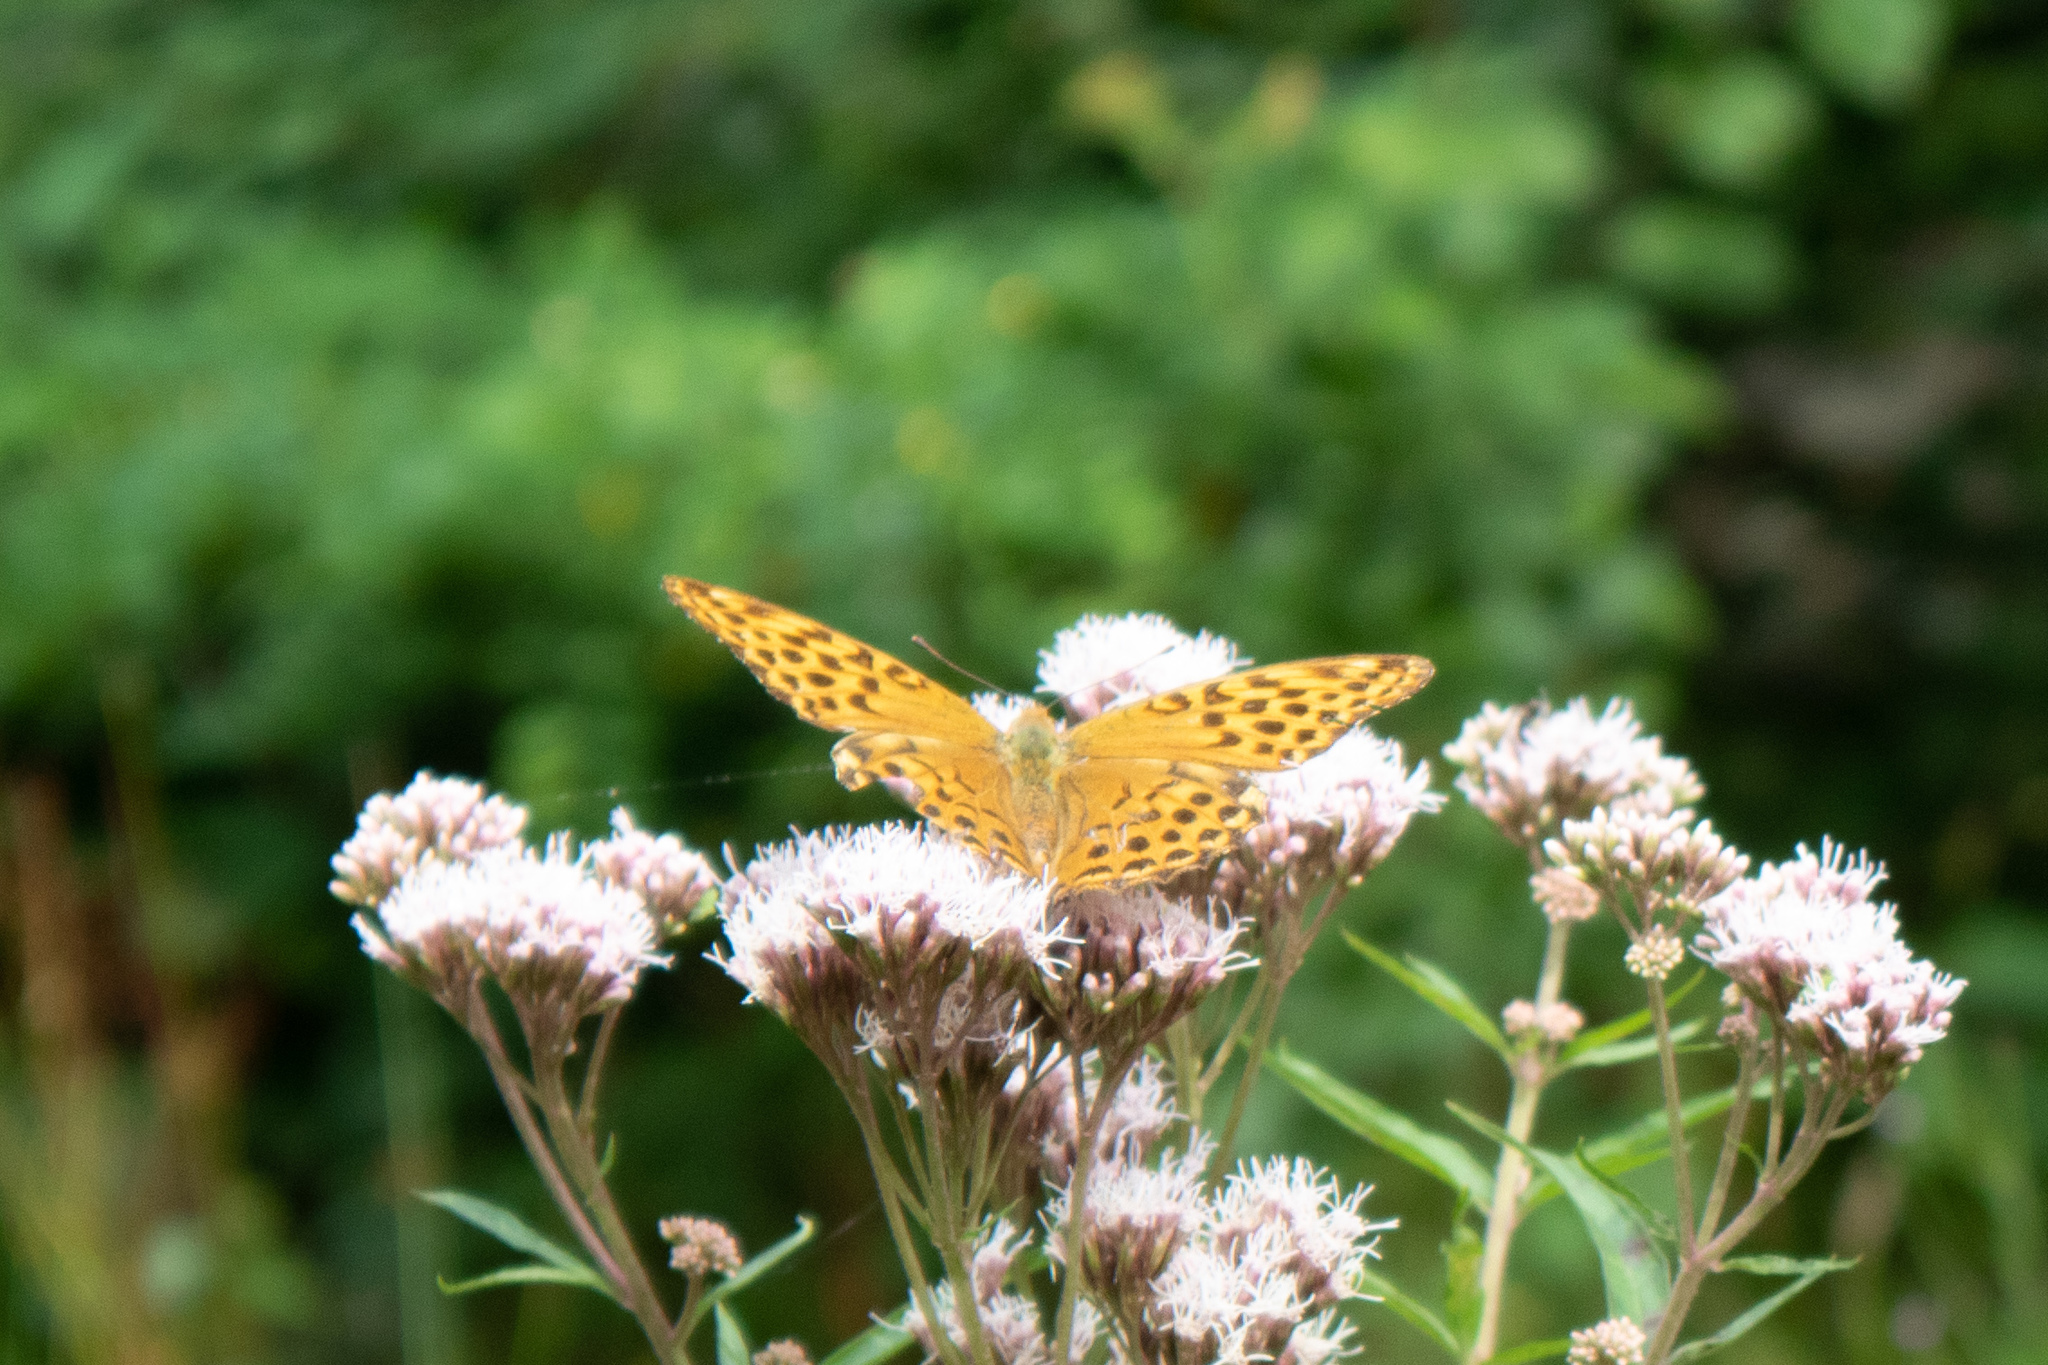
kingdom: Animalia
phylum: Arthropoda
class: Insecta
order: Lepidoptera
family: Nymphalidae
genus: Argynnis
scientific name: Argynnis paphia
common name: Silver-washed fritillary
